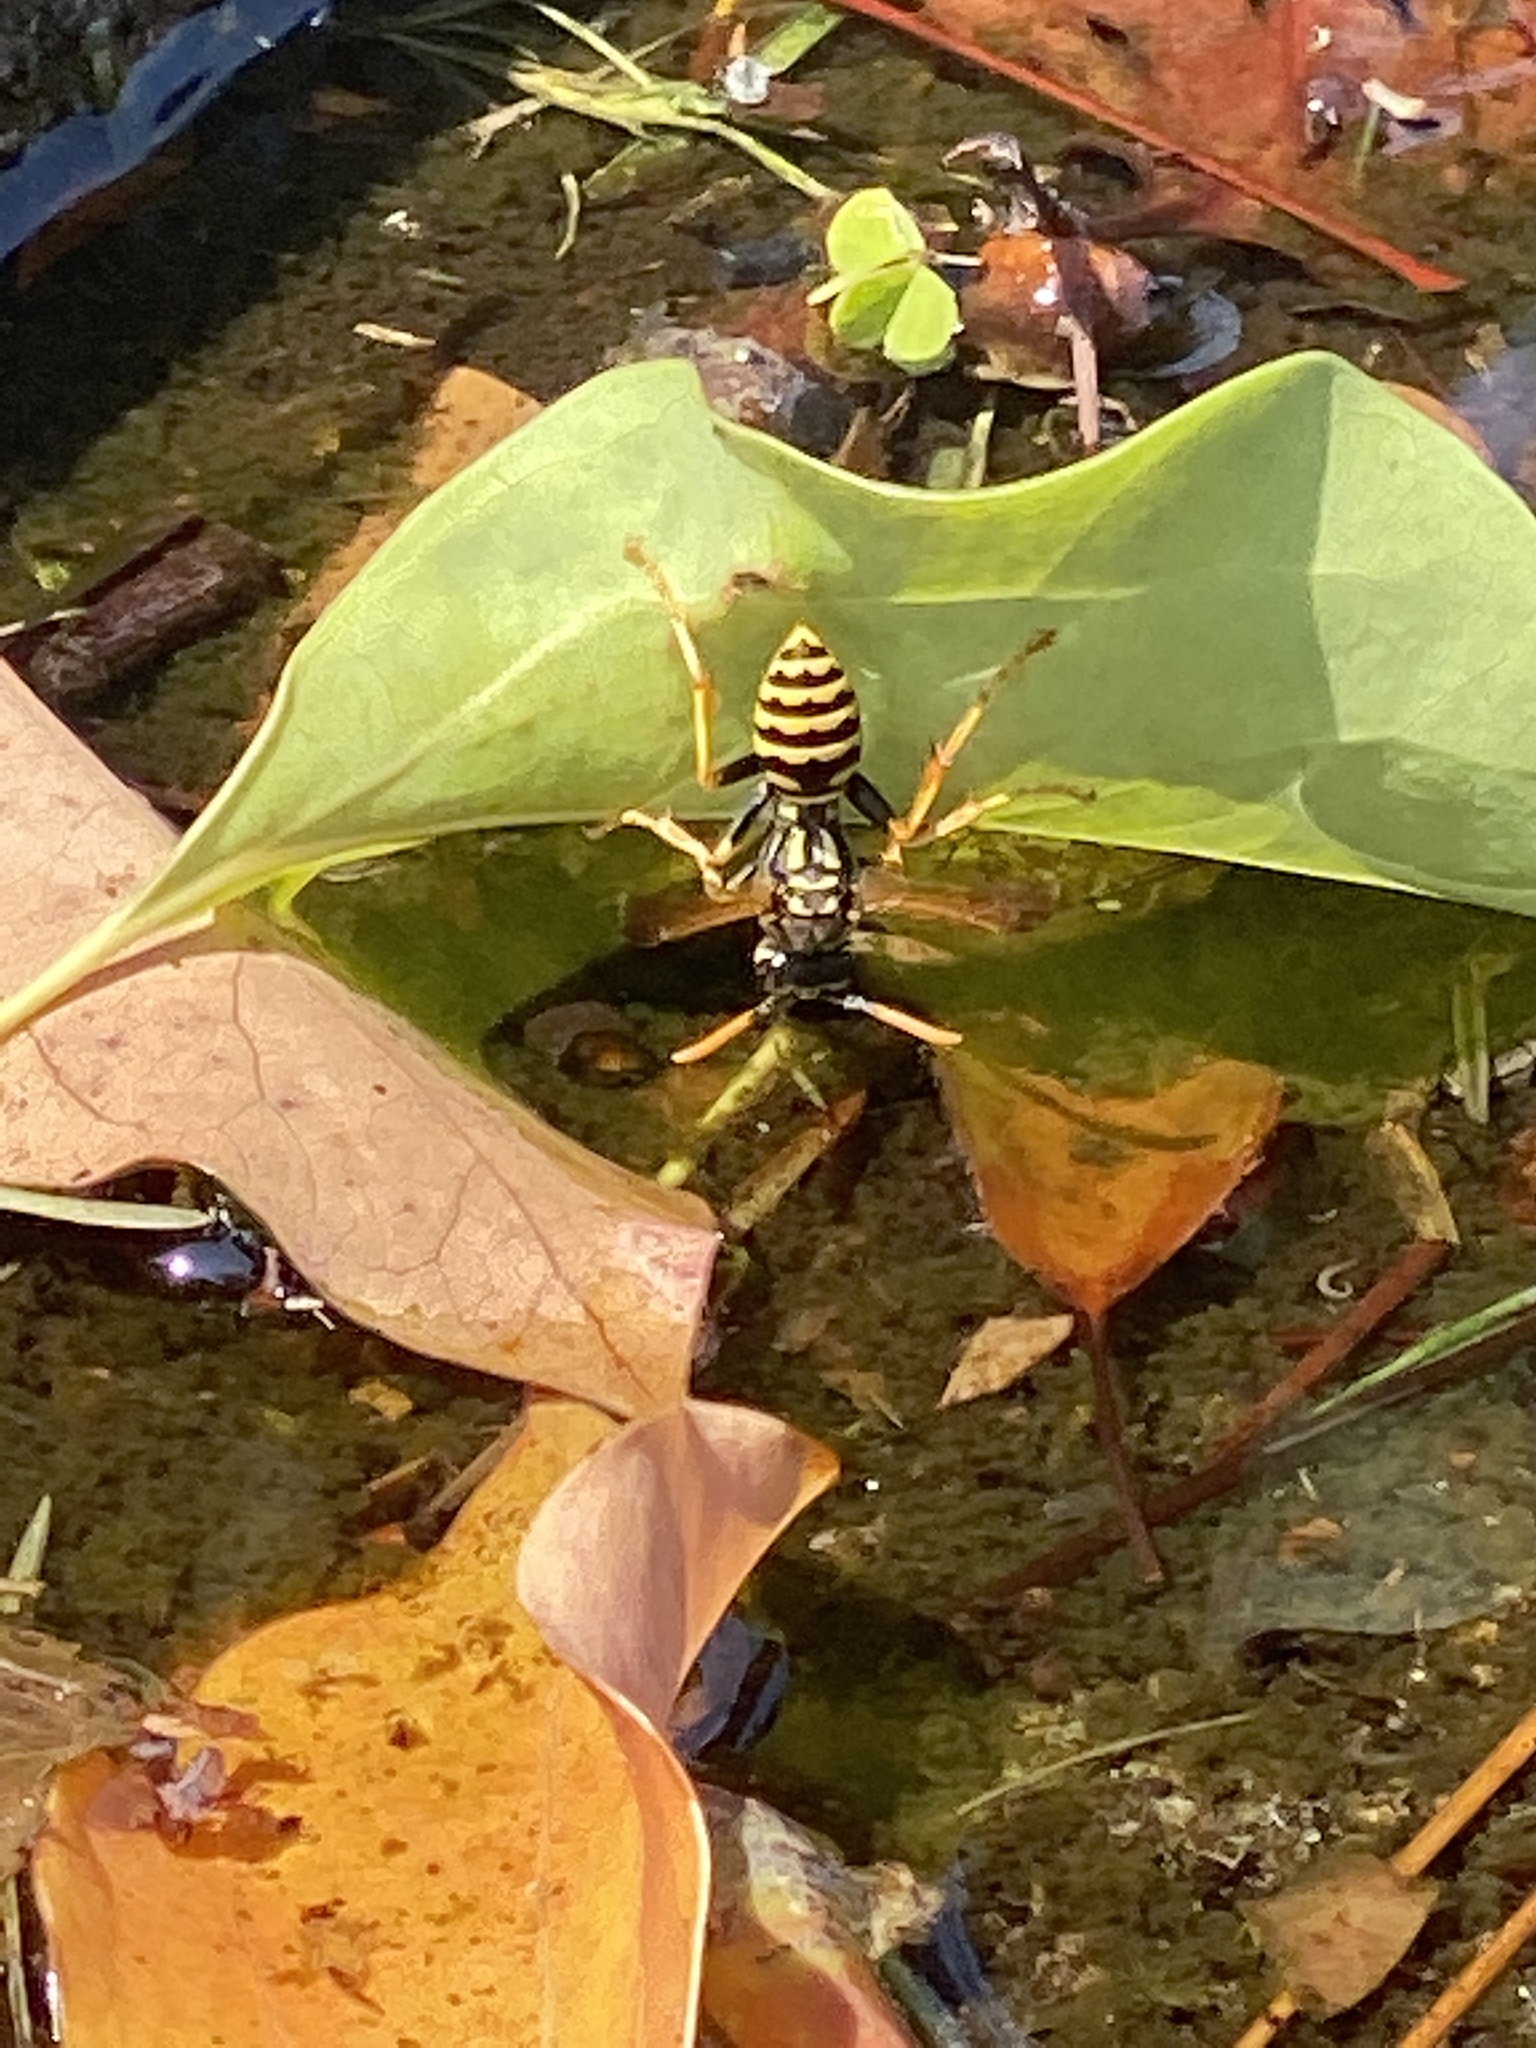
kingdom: Animalia
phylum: Arthropoda
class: Insecta
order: Hymenoptera
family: Eumenidae
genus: Polistes
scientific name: Polistes dominula
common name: Paper wasp
